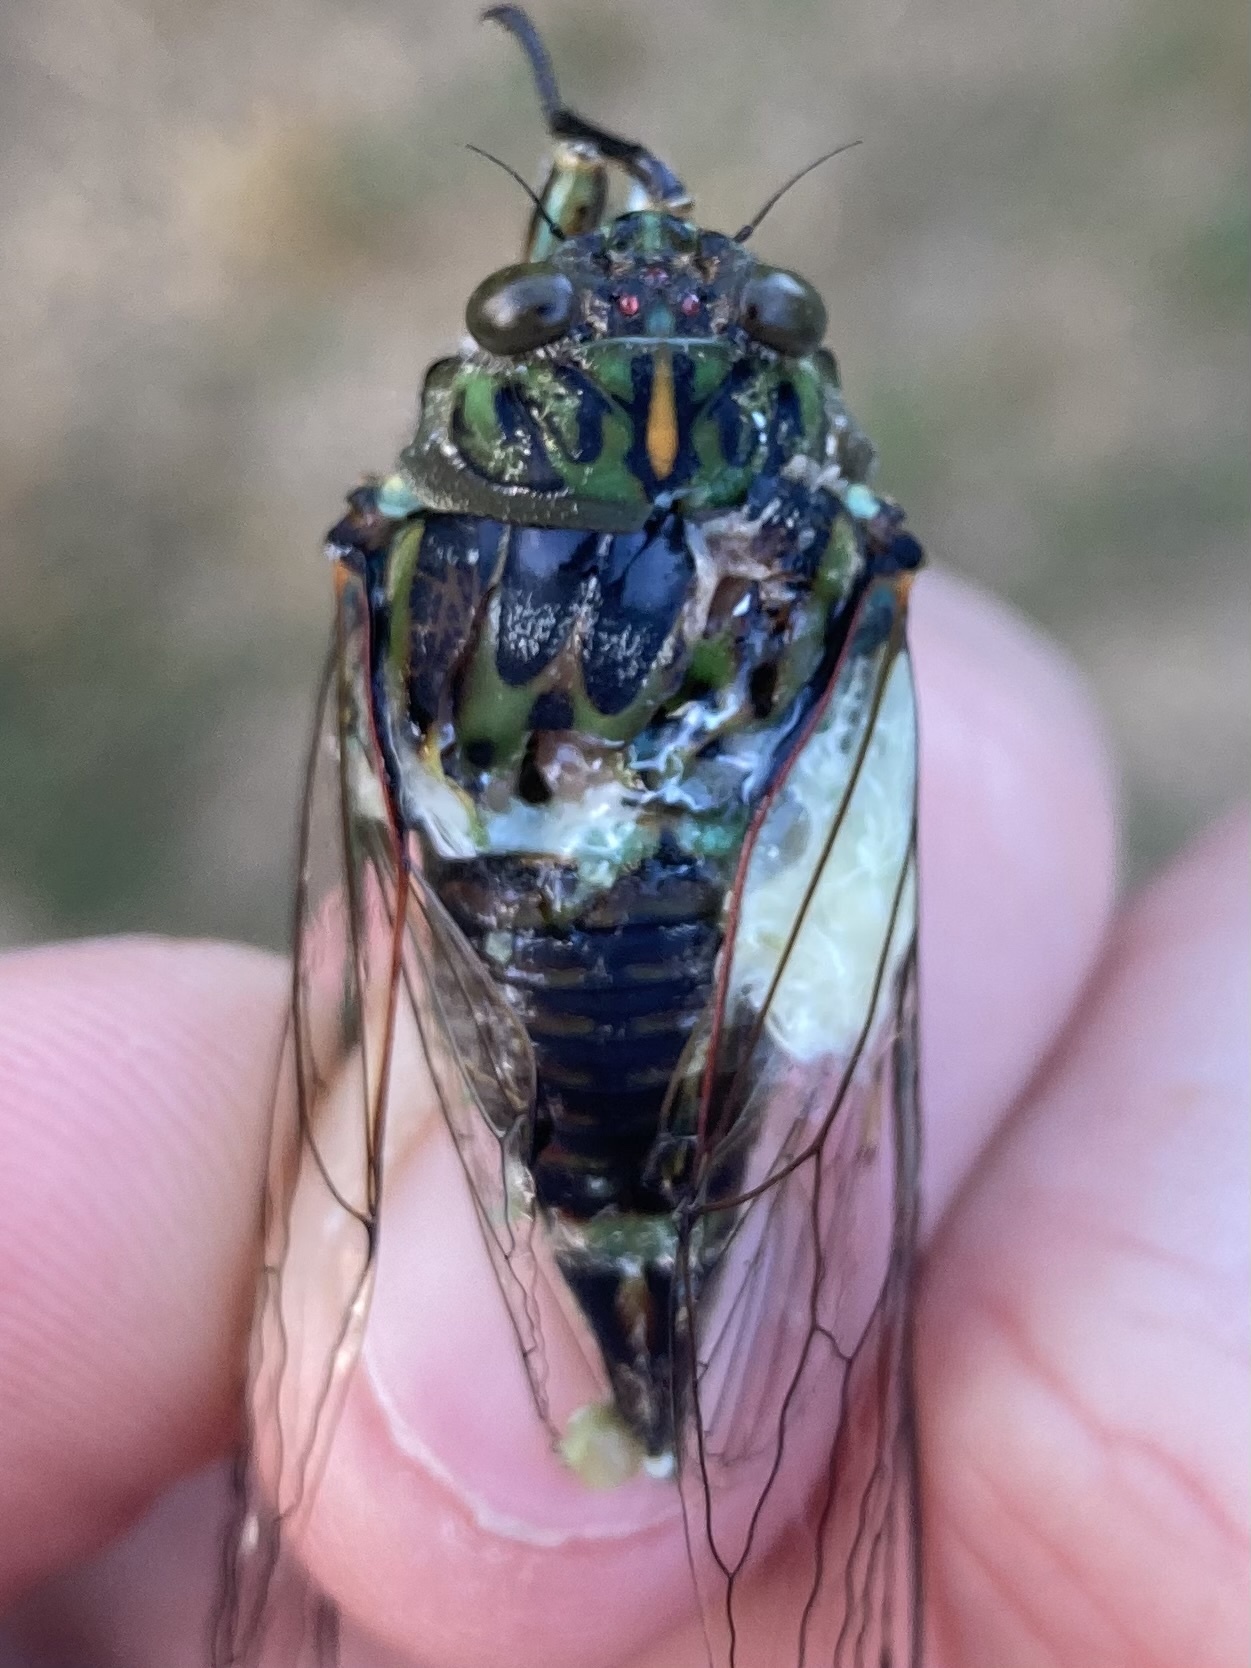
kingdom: Animalia
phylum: Arthropoda
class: Insecta
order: Hemiptera
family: Cicadidae
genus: Amphipsalta
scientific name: Amphipsalta zelandica
